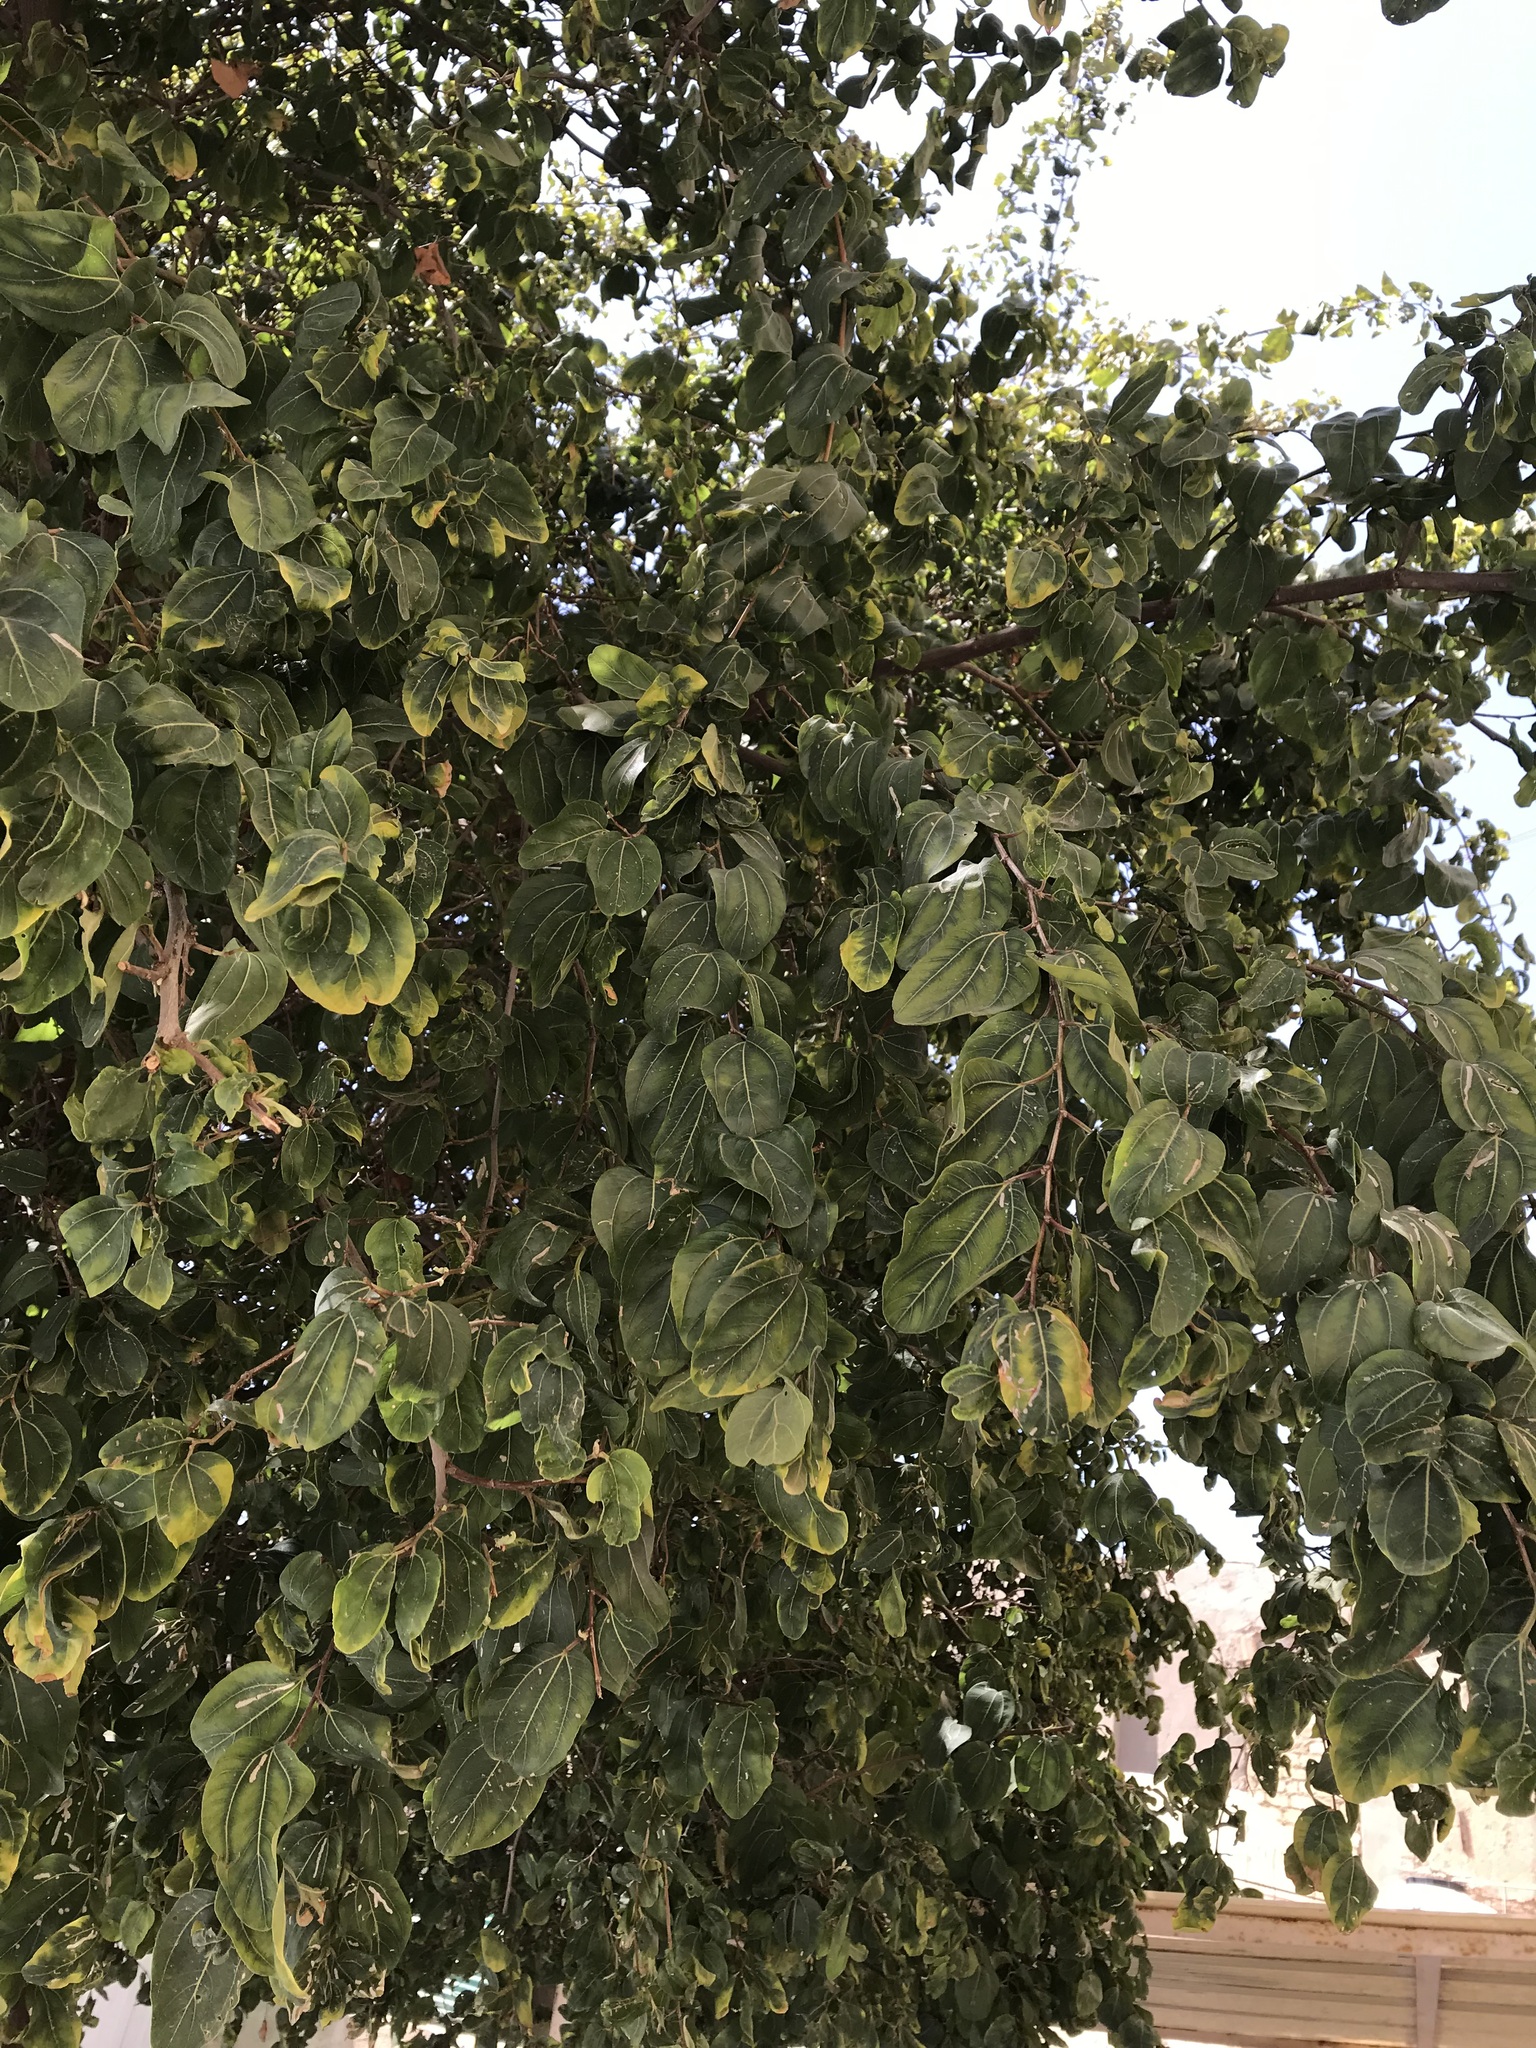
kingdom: Plantae
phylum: Tracheophyta
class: Magnoliopsida
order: Rosales
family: Rhamnaceae
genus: Ziziphus
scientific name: Ziziphus spina-christi
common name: Syrian christ-thorn
